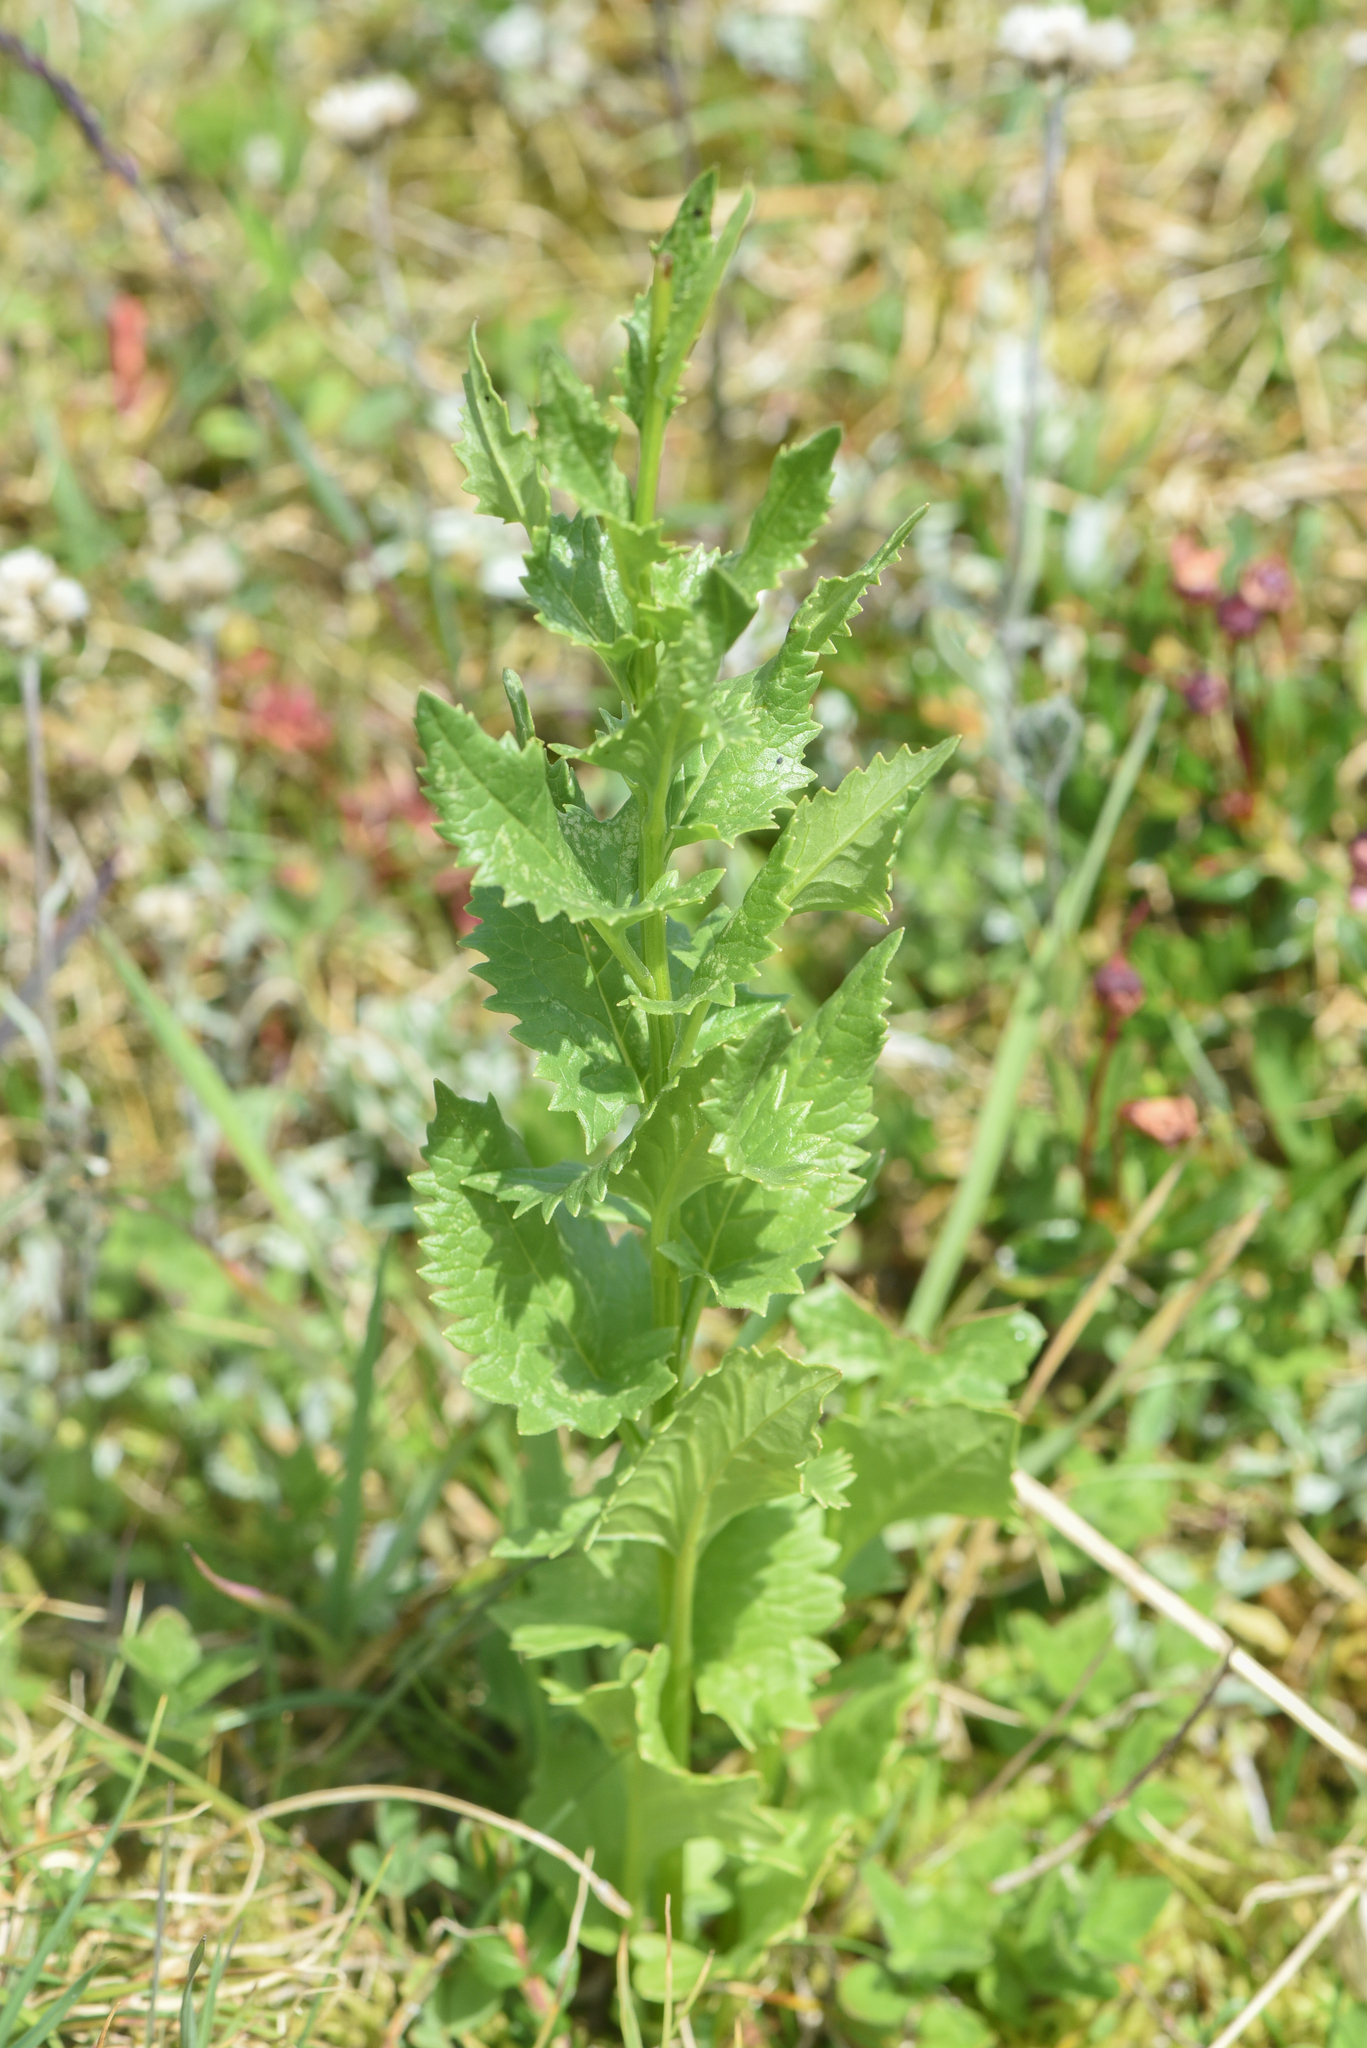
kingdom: Plantae
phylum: Tracheophyta
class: Magnoliopsida
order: Asterales
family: Asteraceae
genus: Senecio
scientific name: Senecio triangularis
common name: Arrowleaf butterweed
